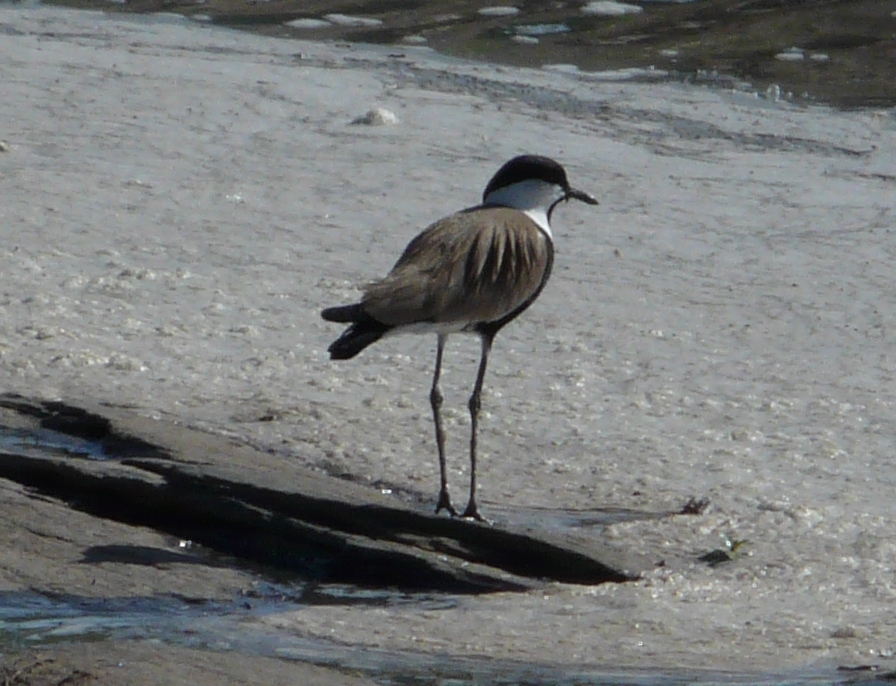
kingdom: Animalia
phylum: Chordata
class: Aves
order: Charadriiformes
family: Charadriidae
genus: Vanellus
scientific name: Vanellus spinosus
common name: Spur-winged lapwing
